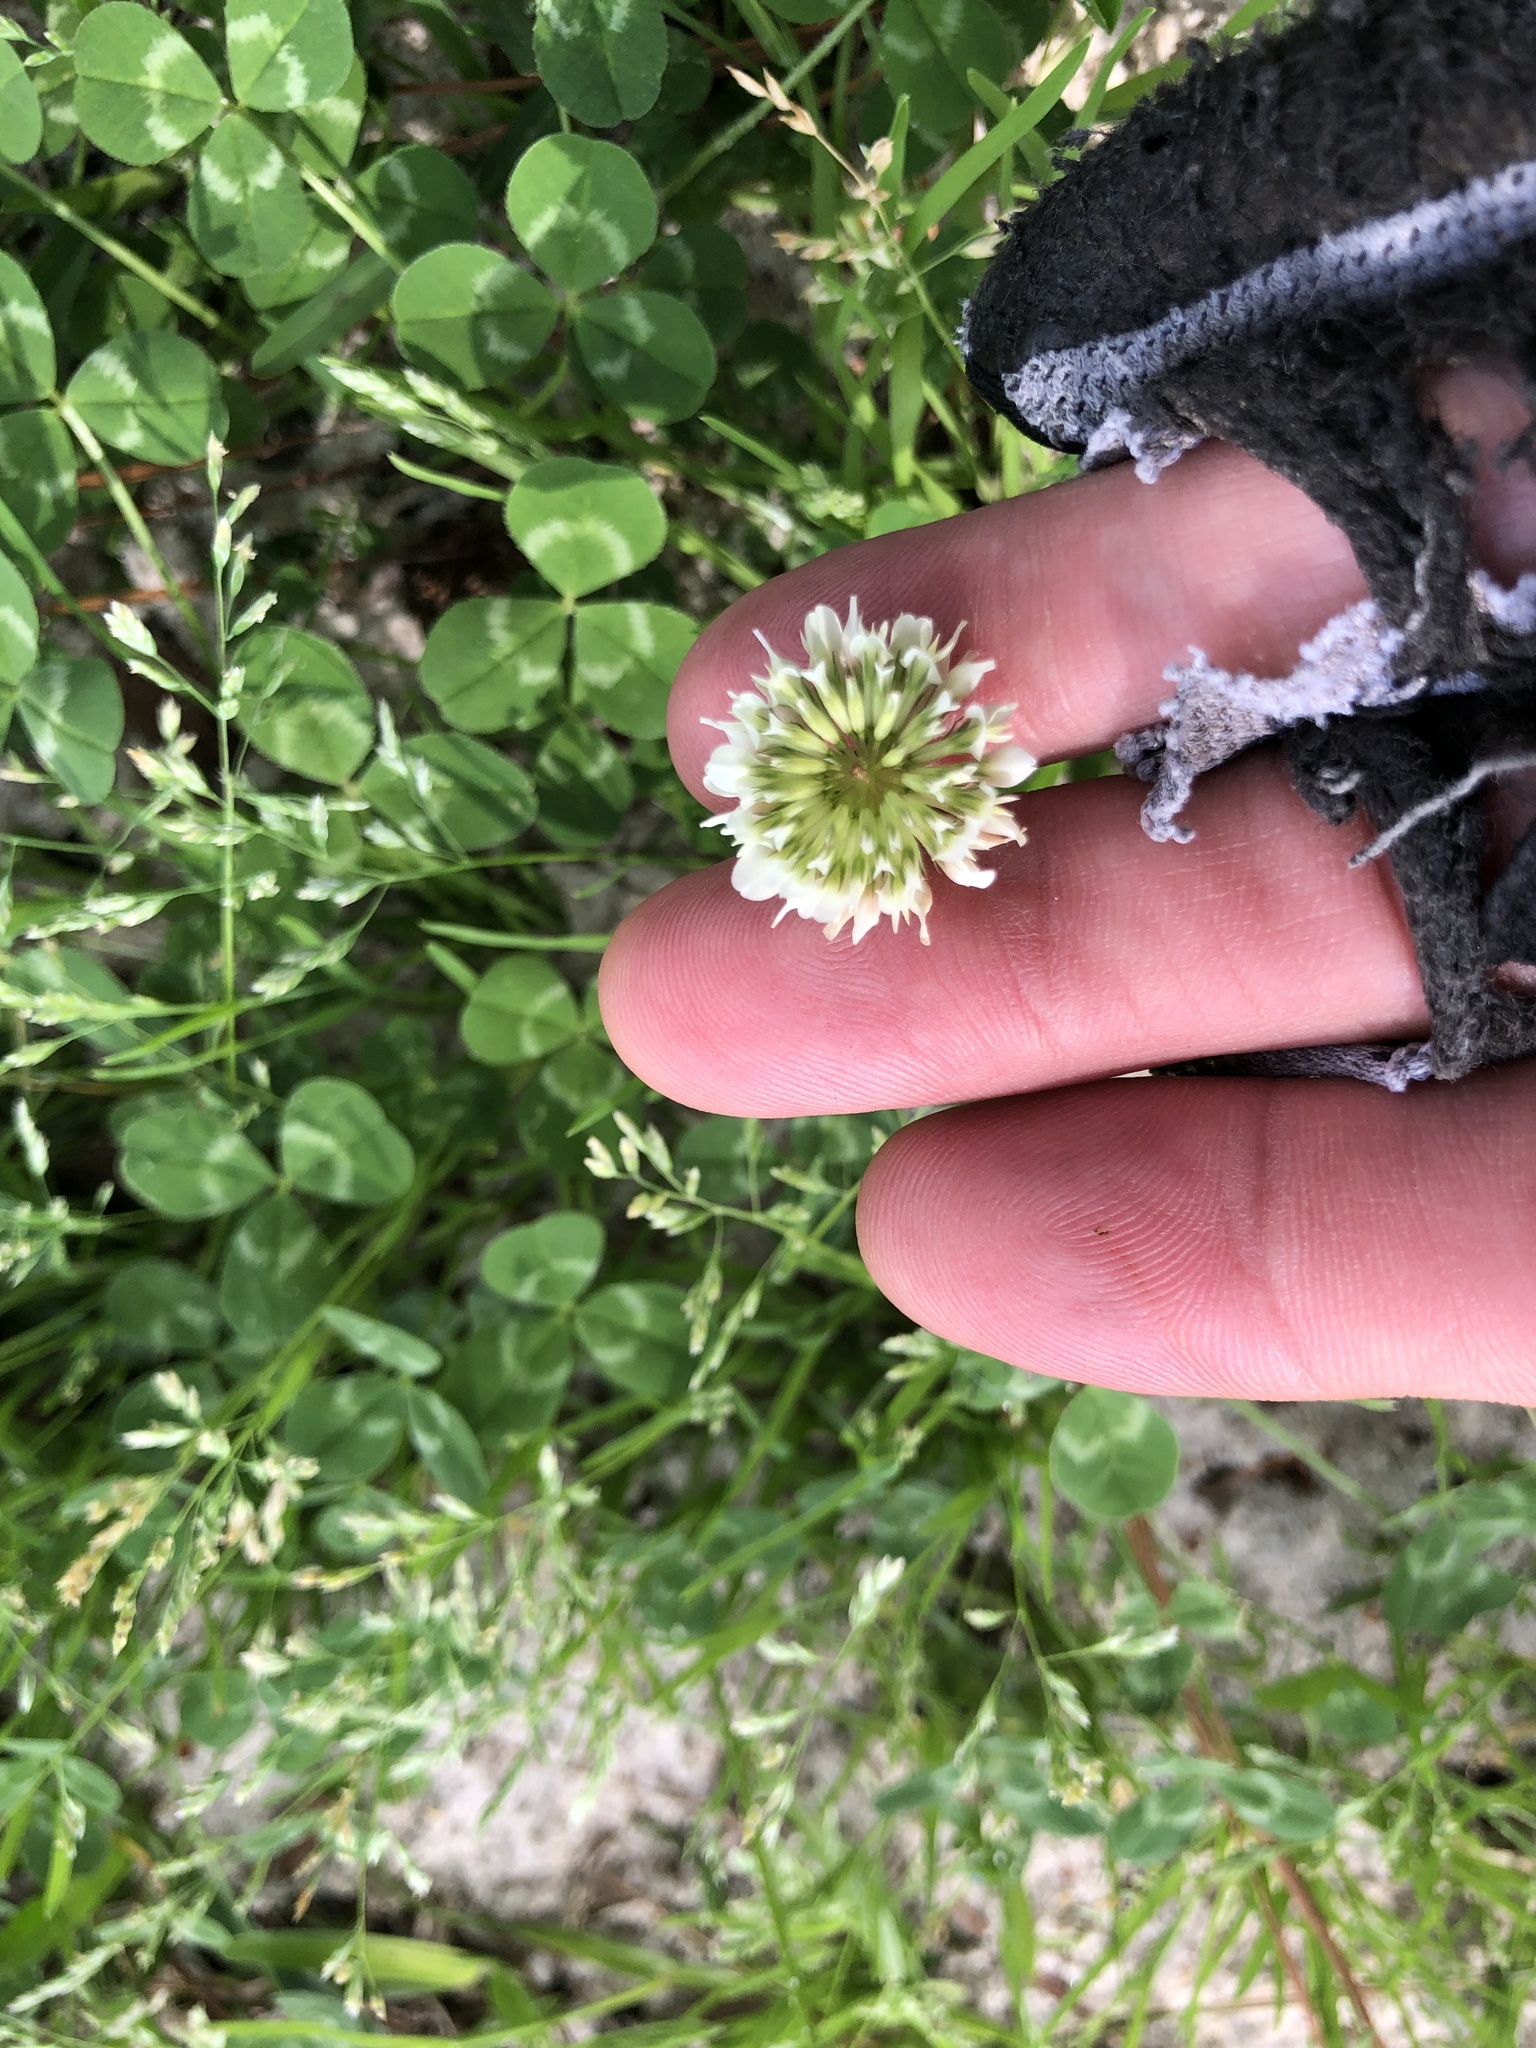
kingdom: Plantae
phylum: Tracheophyta
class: Magnoliopsida
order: Fabales
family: Fabaceae
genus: Trifolium
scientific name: Trifolium repens
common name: White clover
